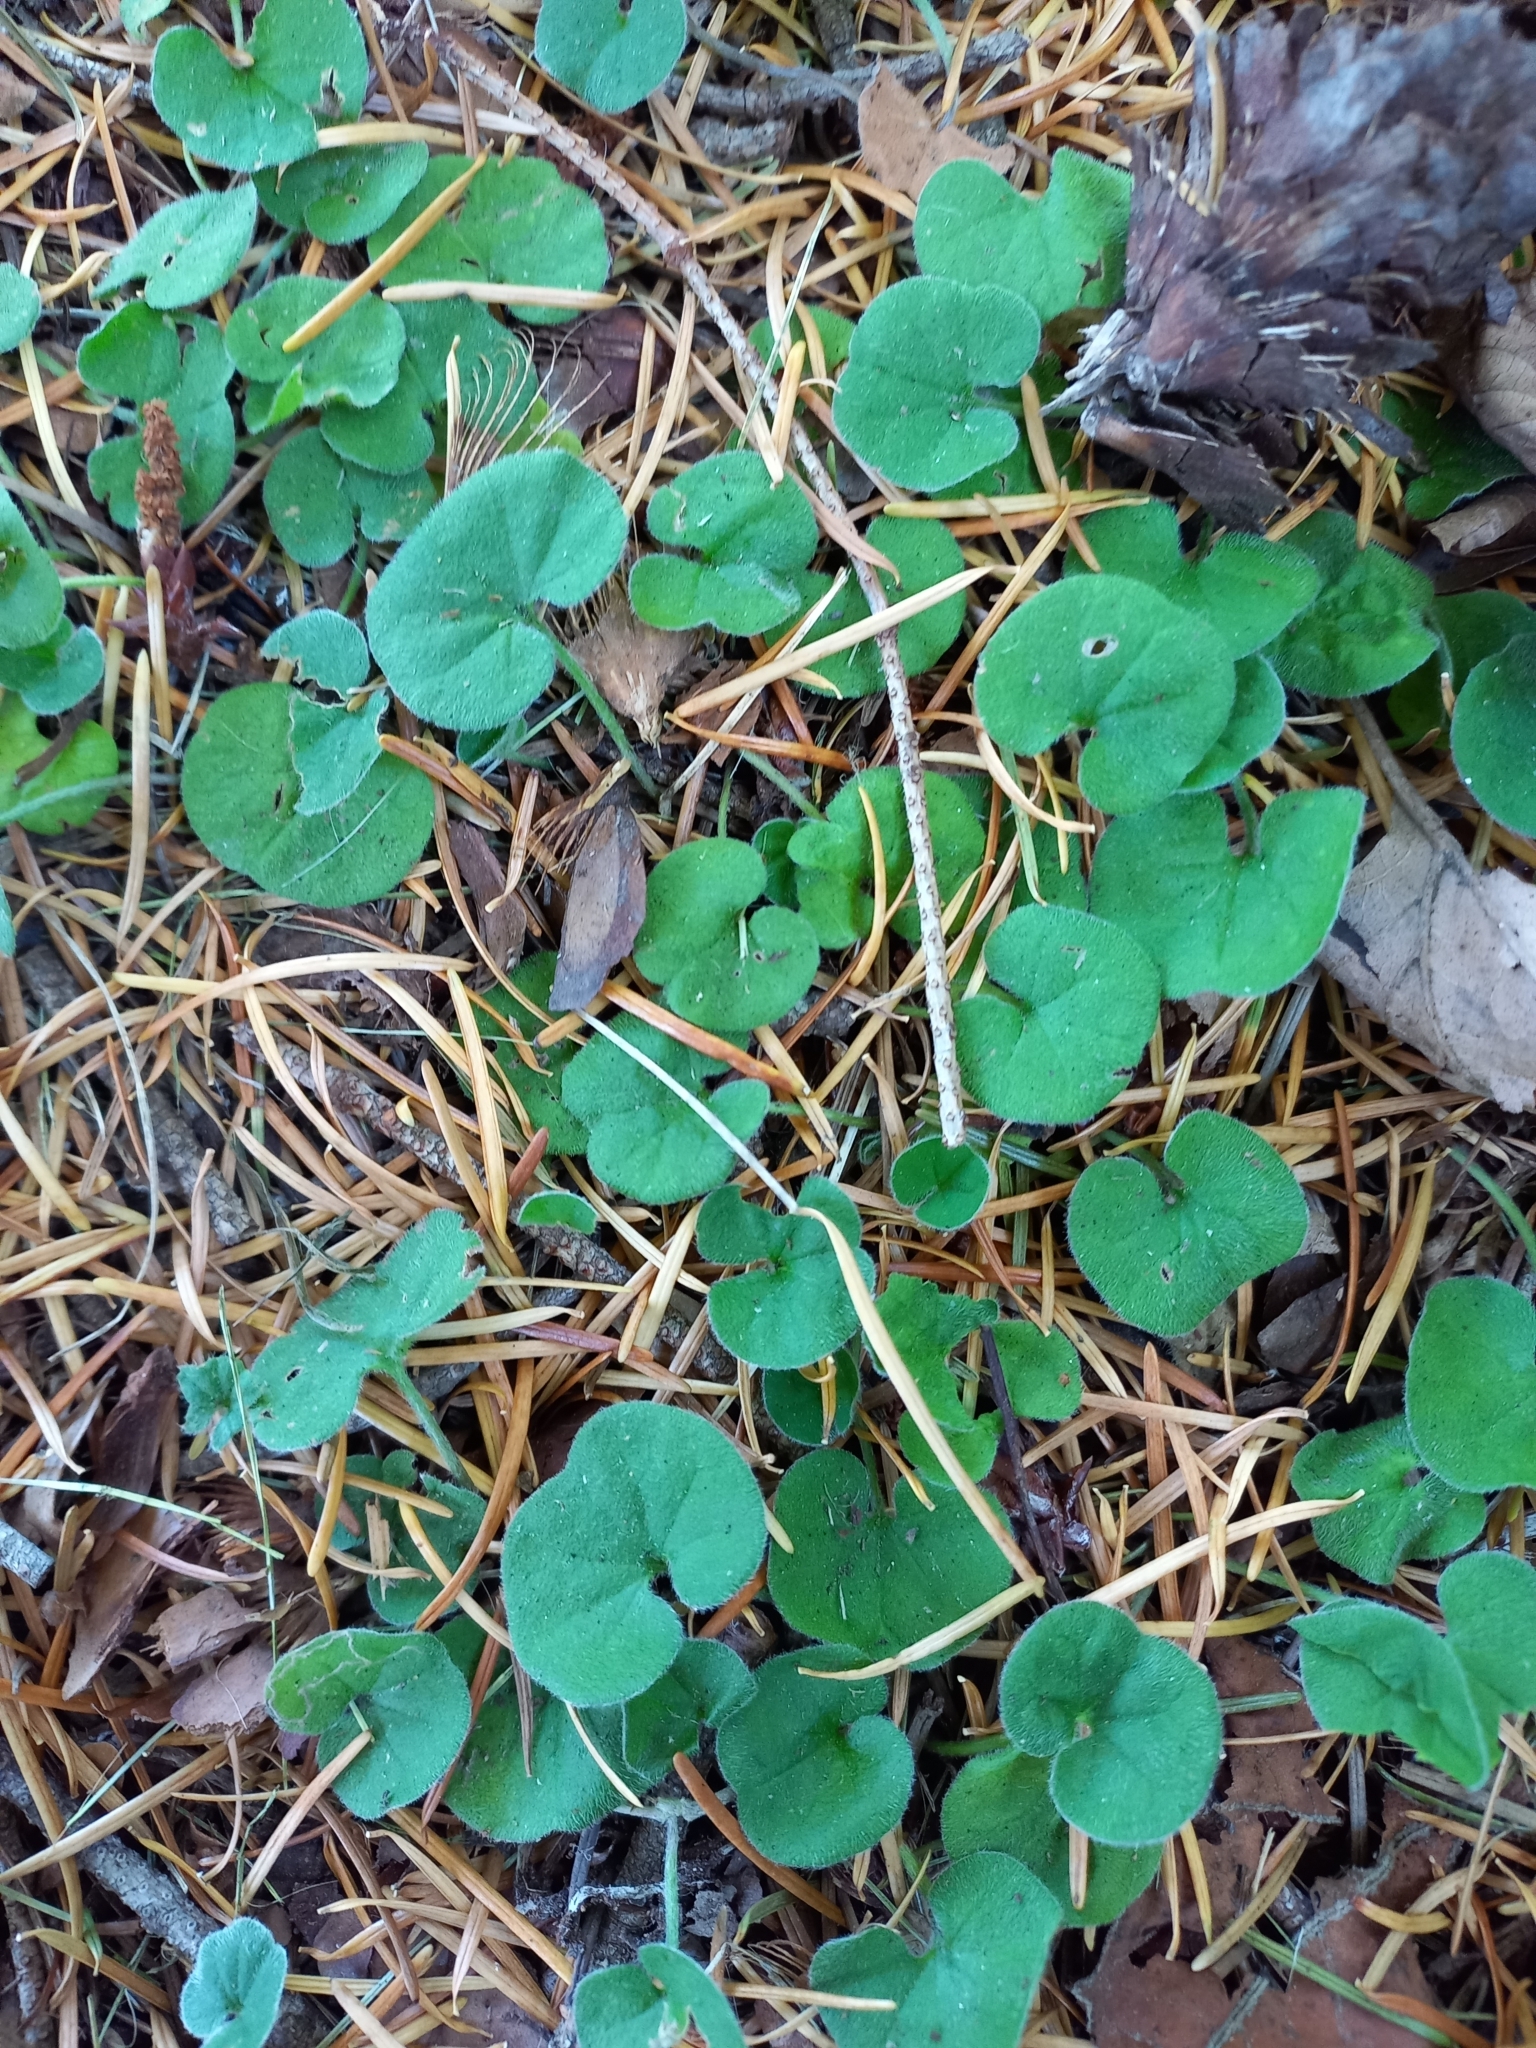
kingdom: Plantae
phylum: Tracheophyta
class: Magnoliopsida
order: Solanales
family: Convolvulaceae
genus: Dichondra
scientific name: Dichondra repens
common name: Kidneyweed
